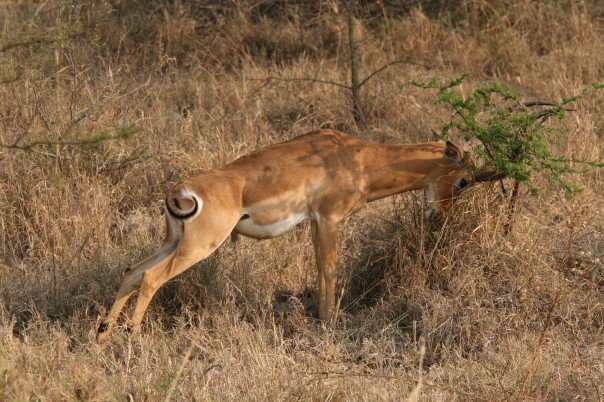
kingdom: Animalia
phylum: Chordata
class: Mammalia
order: Artiodactyla
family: Bovidae
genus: Aepyceros
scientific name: Aepyceros melampus
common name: Impala
